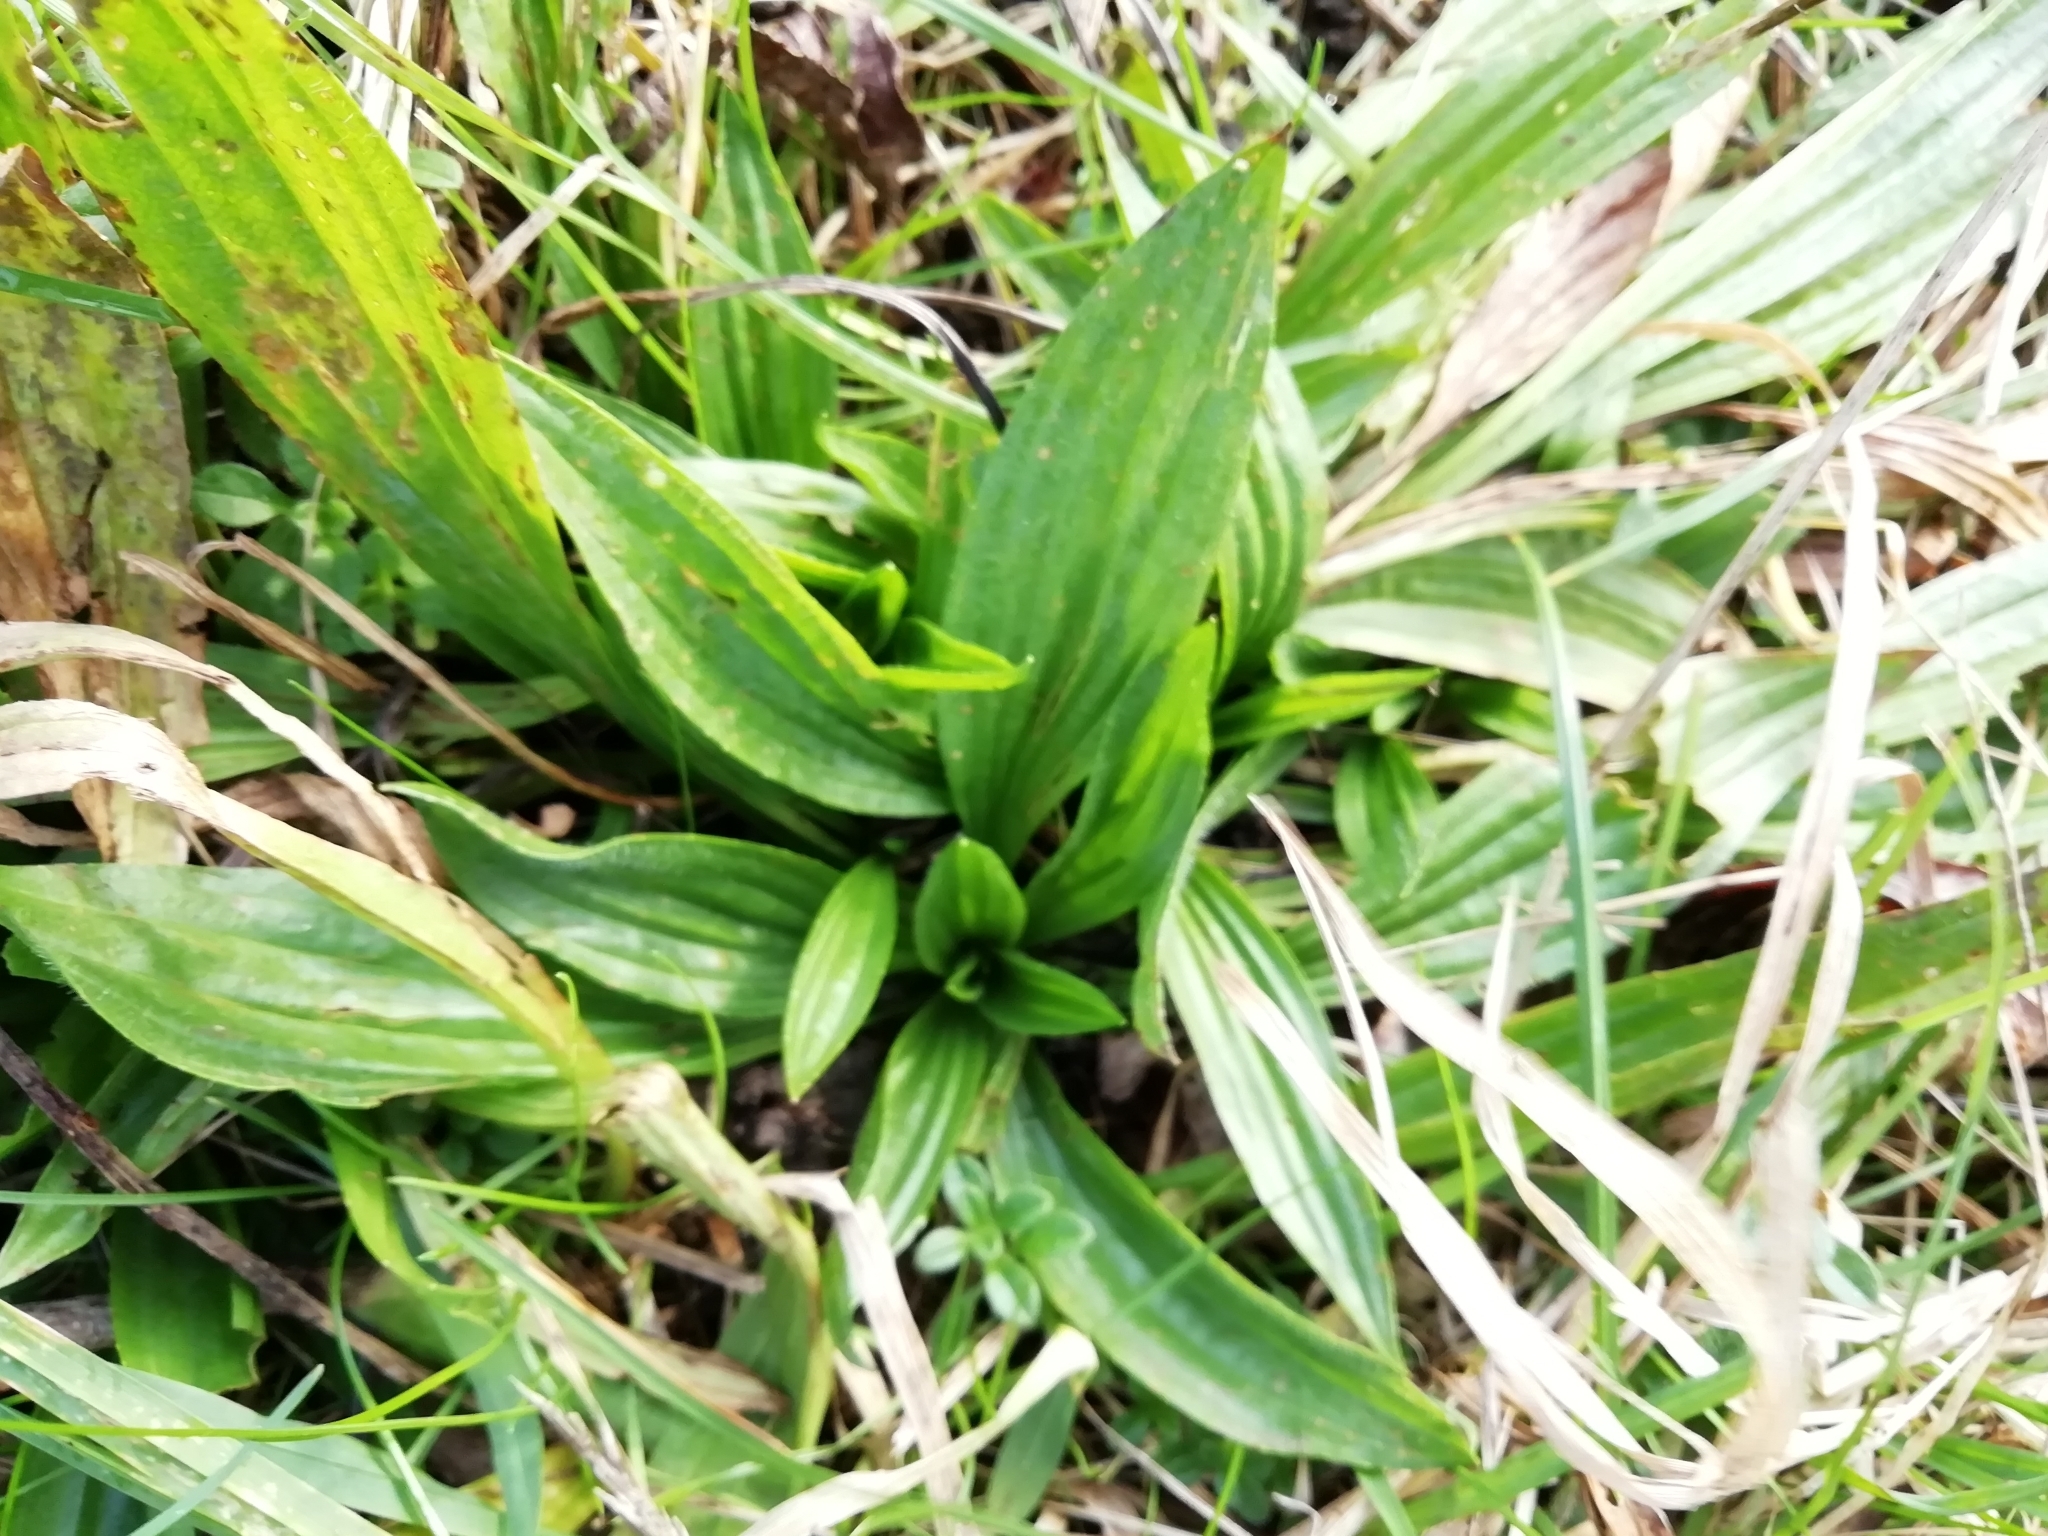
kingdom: Plantae
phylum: Tracheophyta
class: Magnoliopsida
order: Lamiales
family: Plantaginaceae
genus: Plantago
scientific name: Plantago lanceolata
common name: Ribwort plantain
